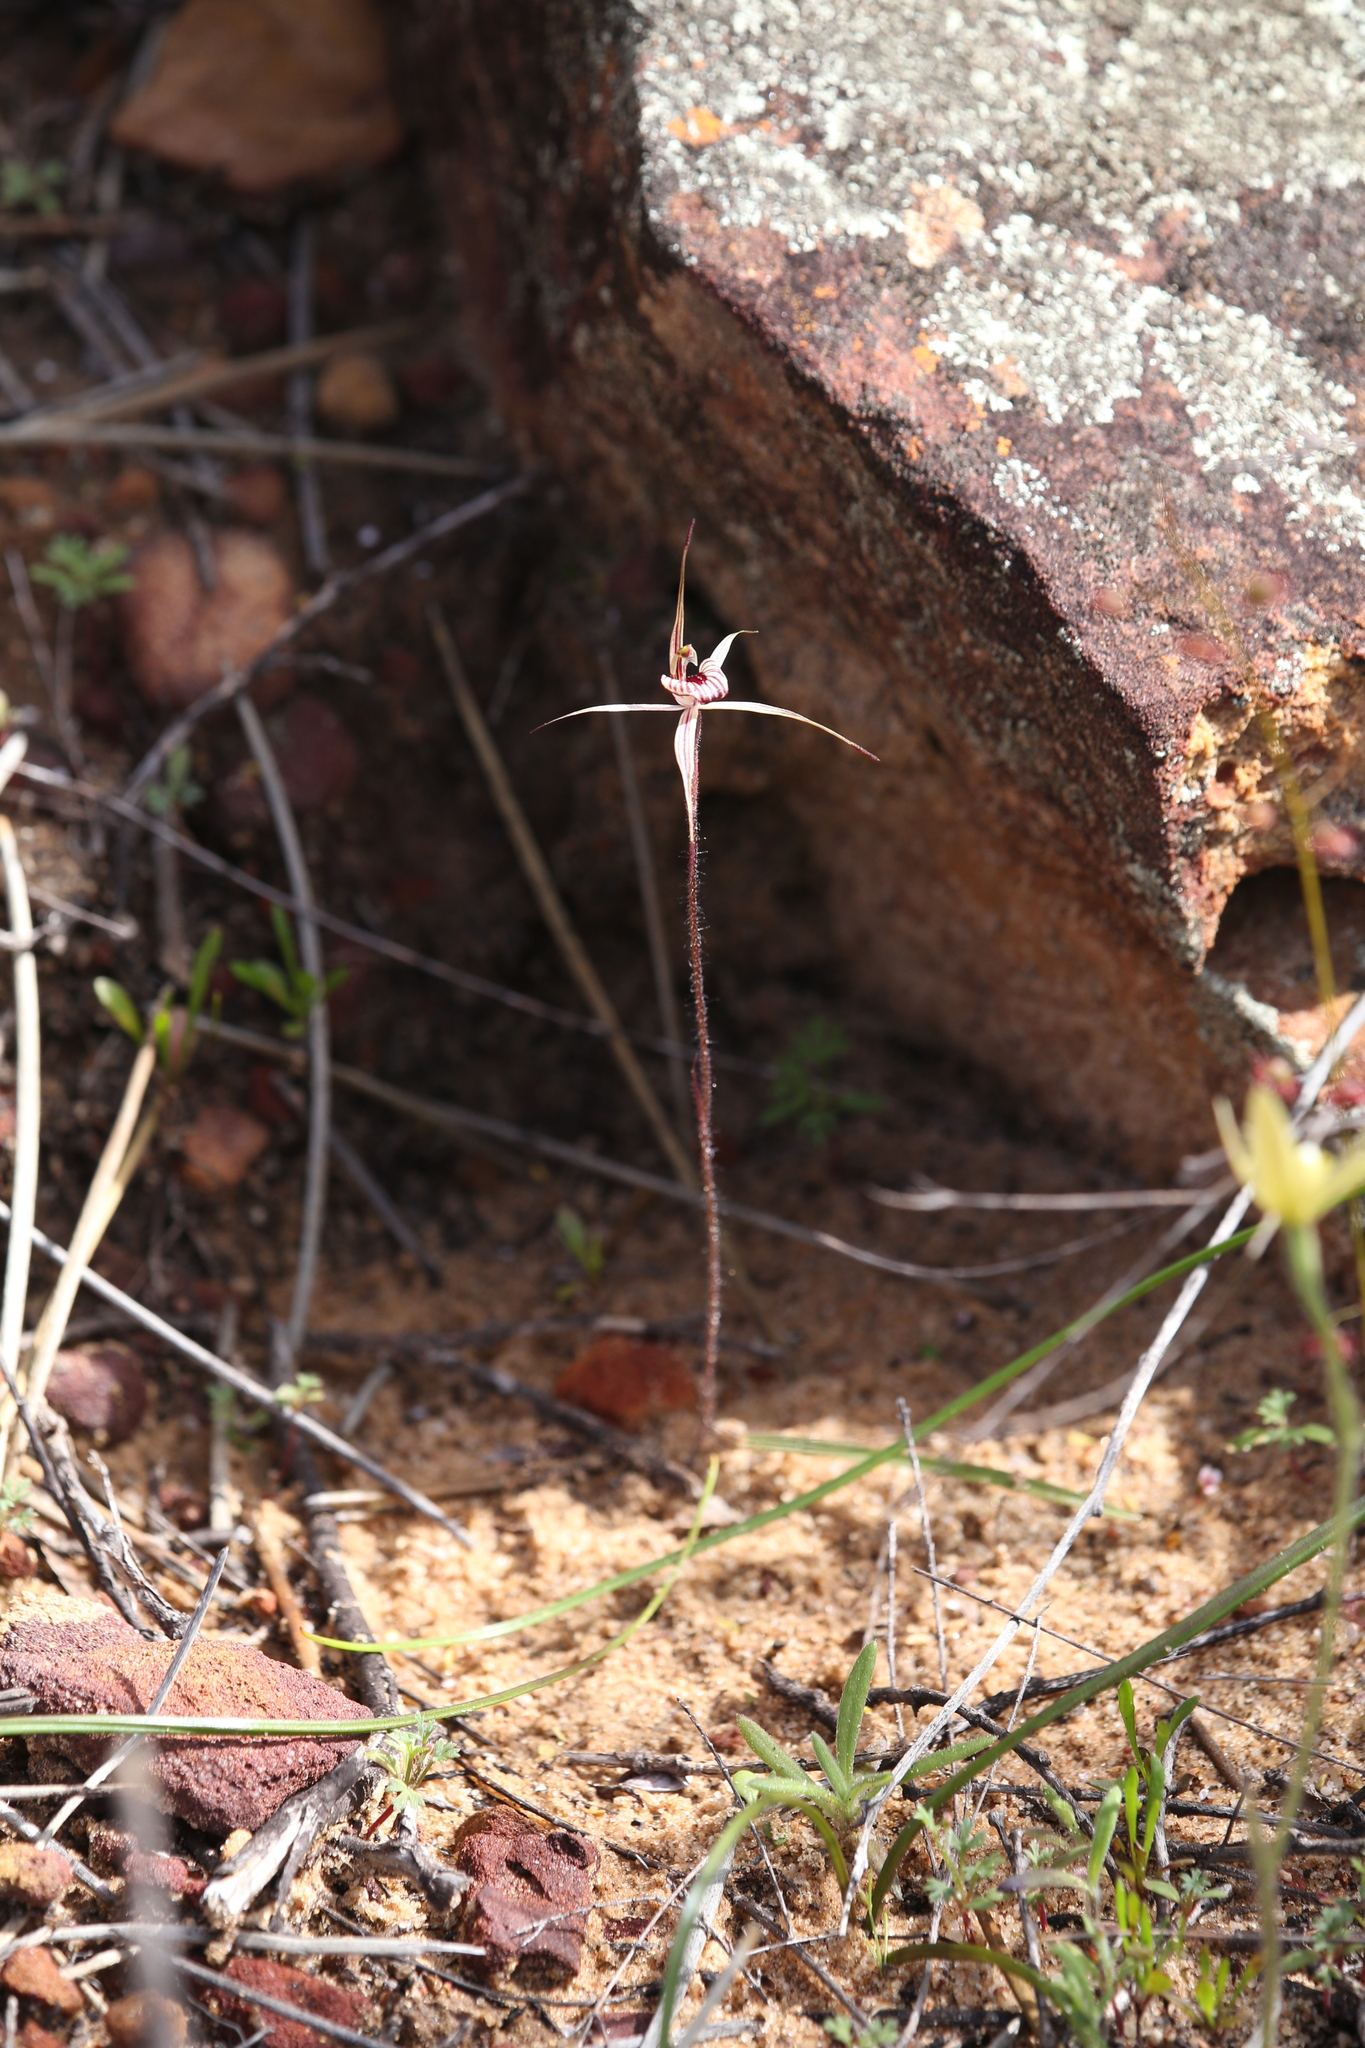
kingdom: Plantae
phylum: Tracheophyta
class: Liliopsida
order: Asparagales
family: Orchidaceae
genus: Caladenia
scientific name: Caladenia wanosa
